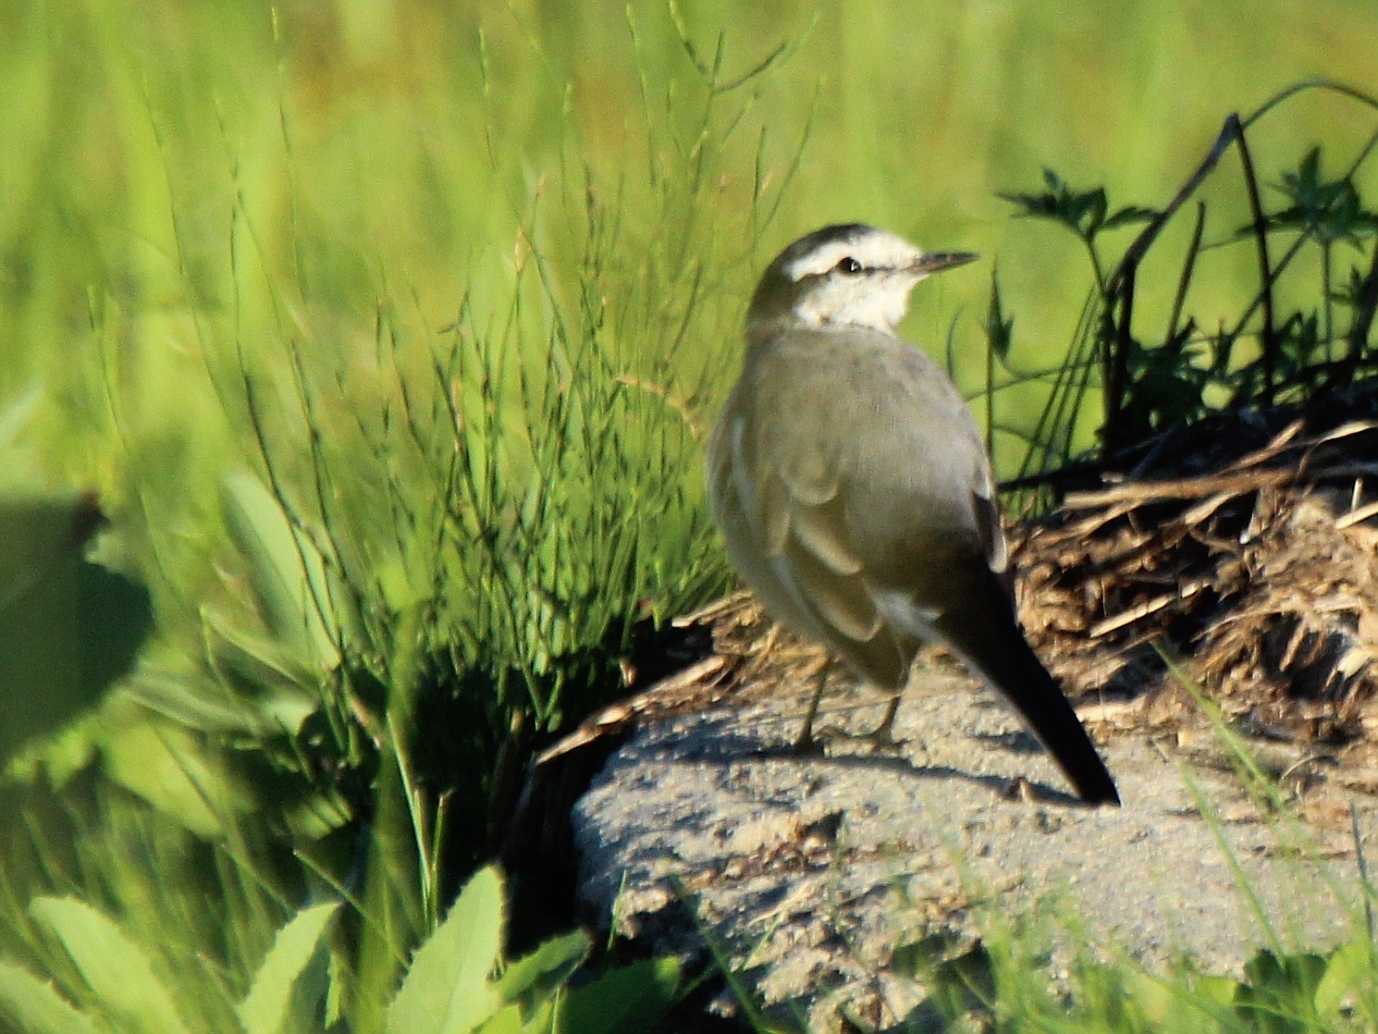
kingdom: Animalia
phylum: Chordata
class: Aves
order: Passeriformes
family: Motacillidae
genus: Motacilla
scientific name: Motacilla alba
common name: White wagtail
